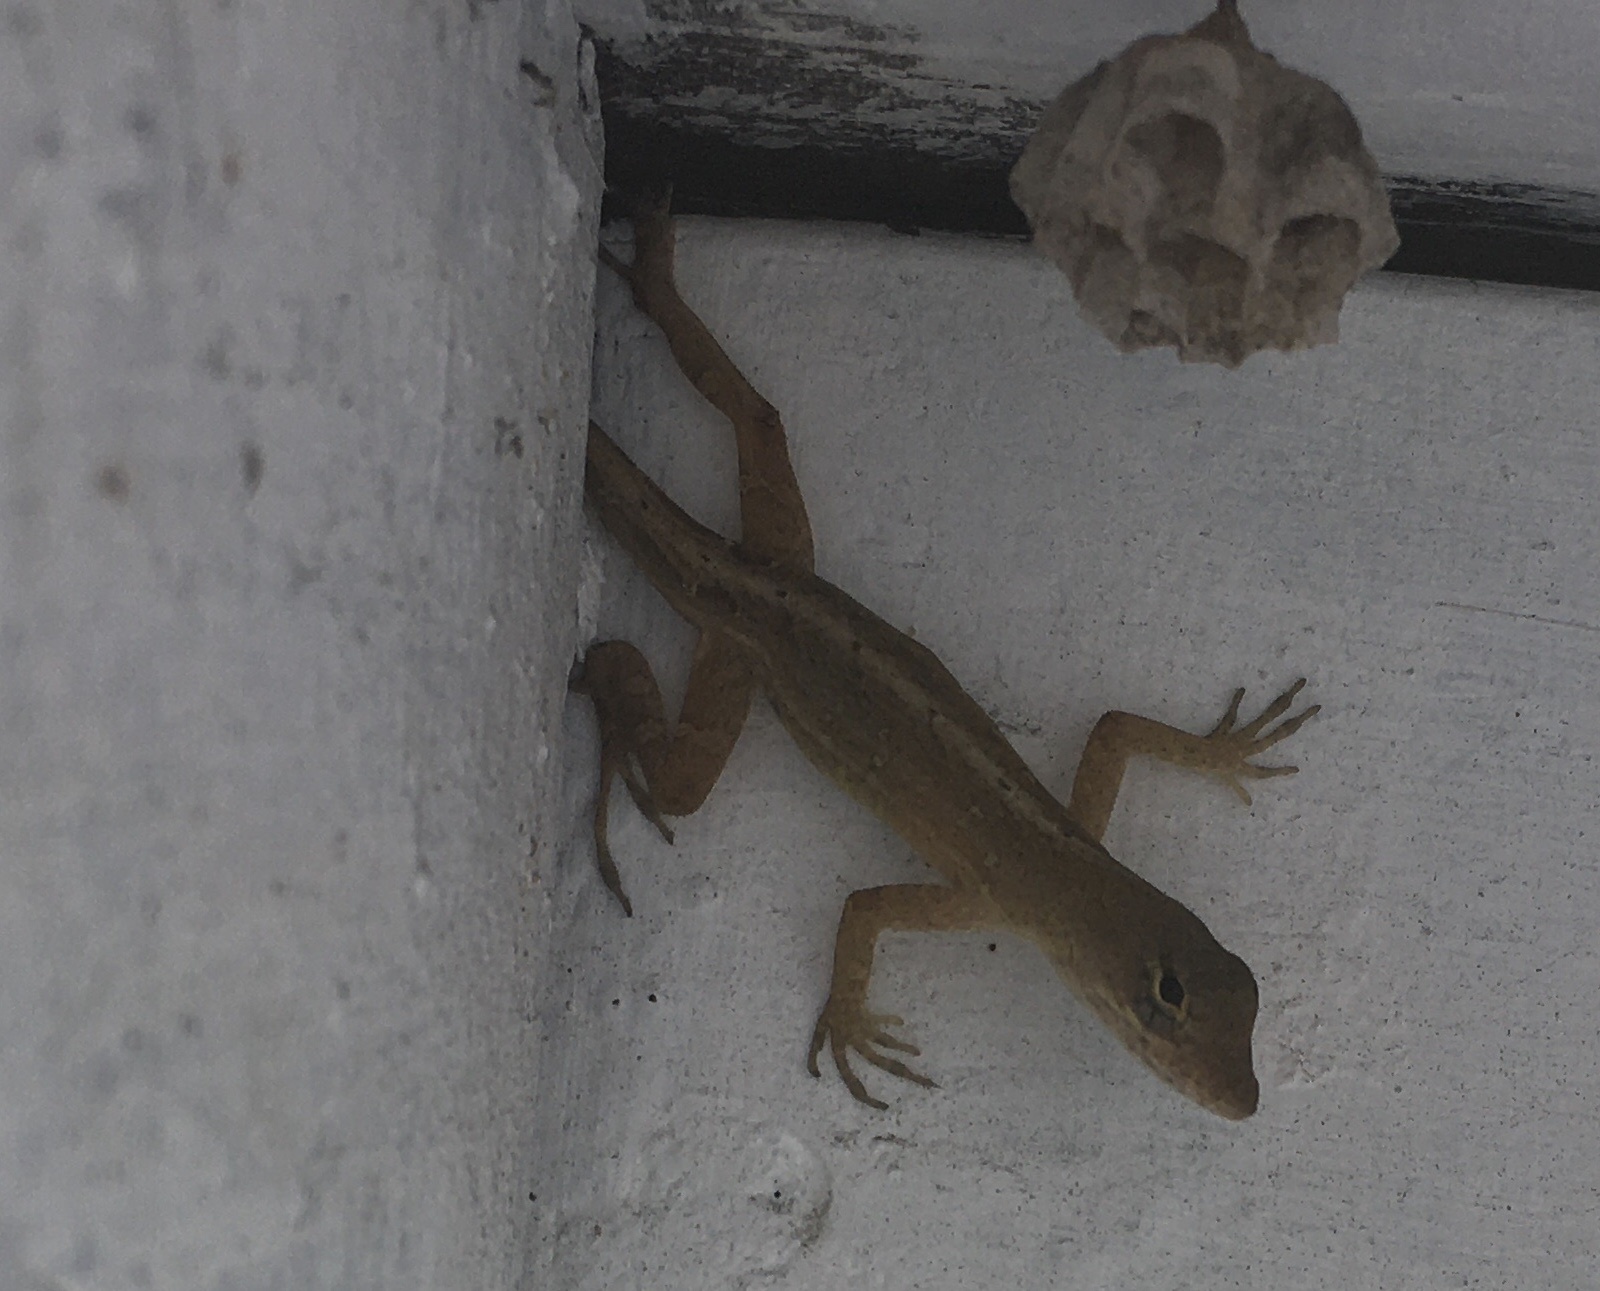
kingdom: Animalia
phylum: Chordata
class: Squamata
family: Dactyloidae
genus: Anolis
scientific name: Anolis sagrei
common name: Brown anole
